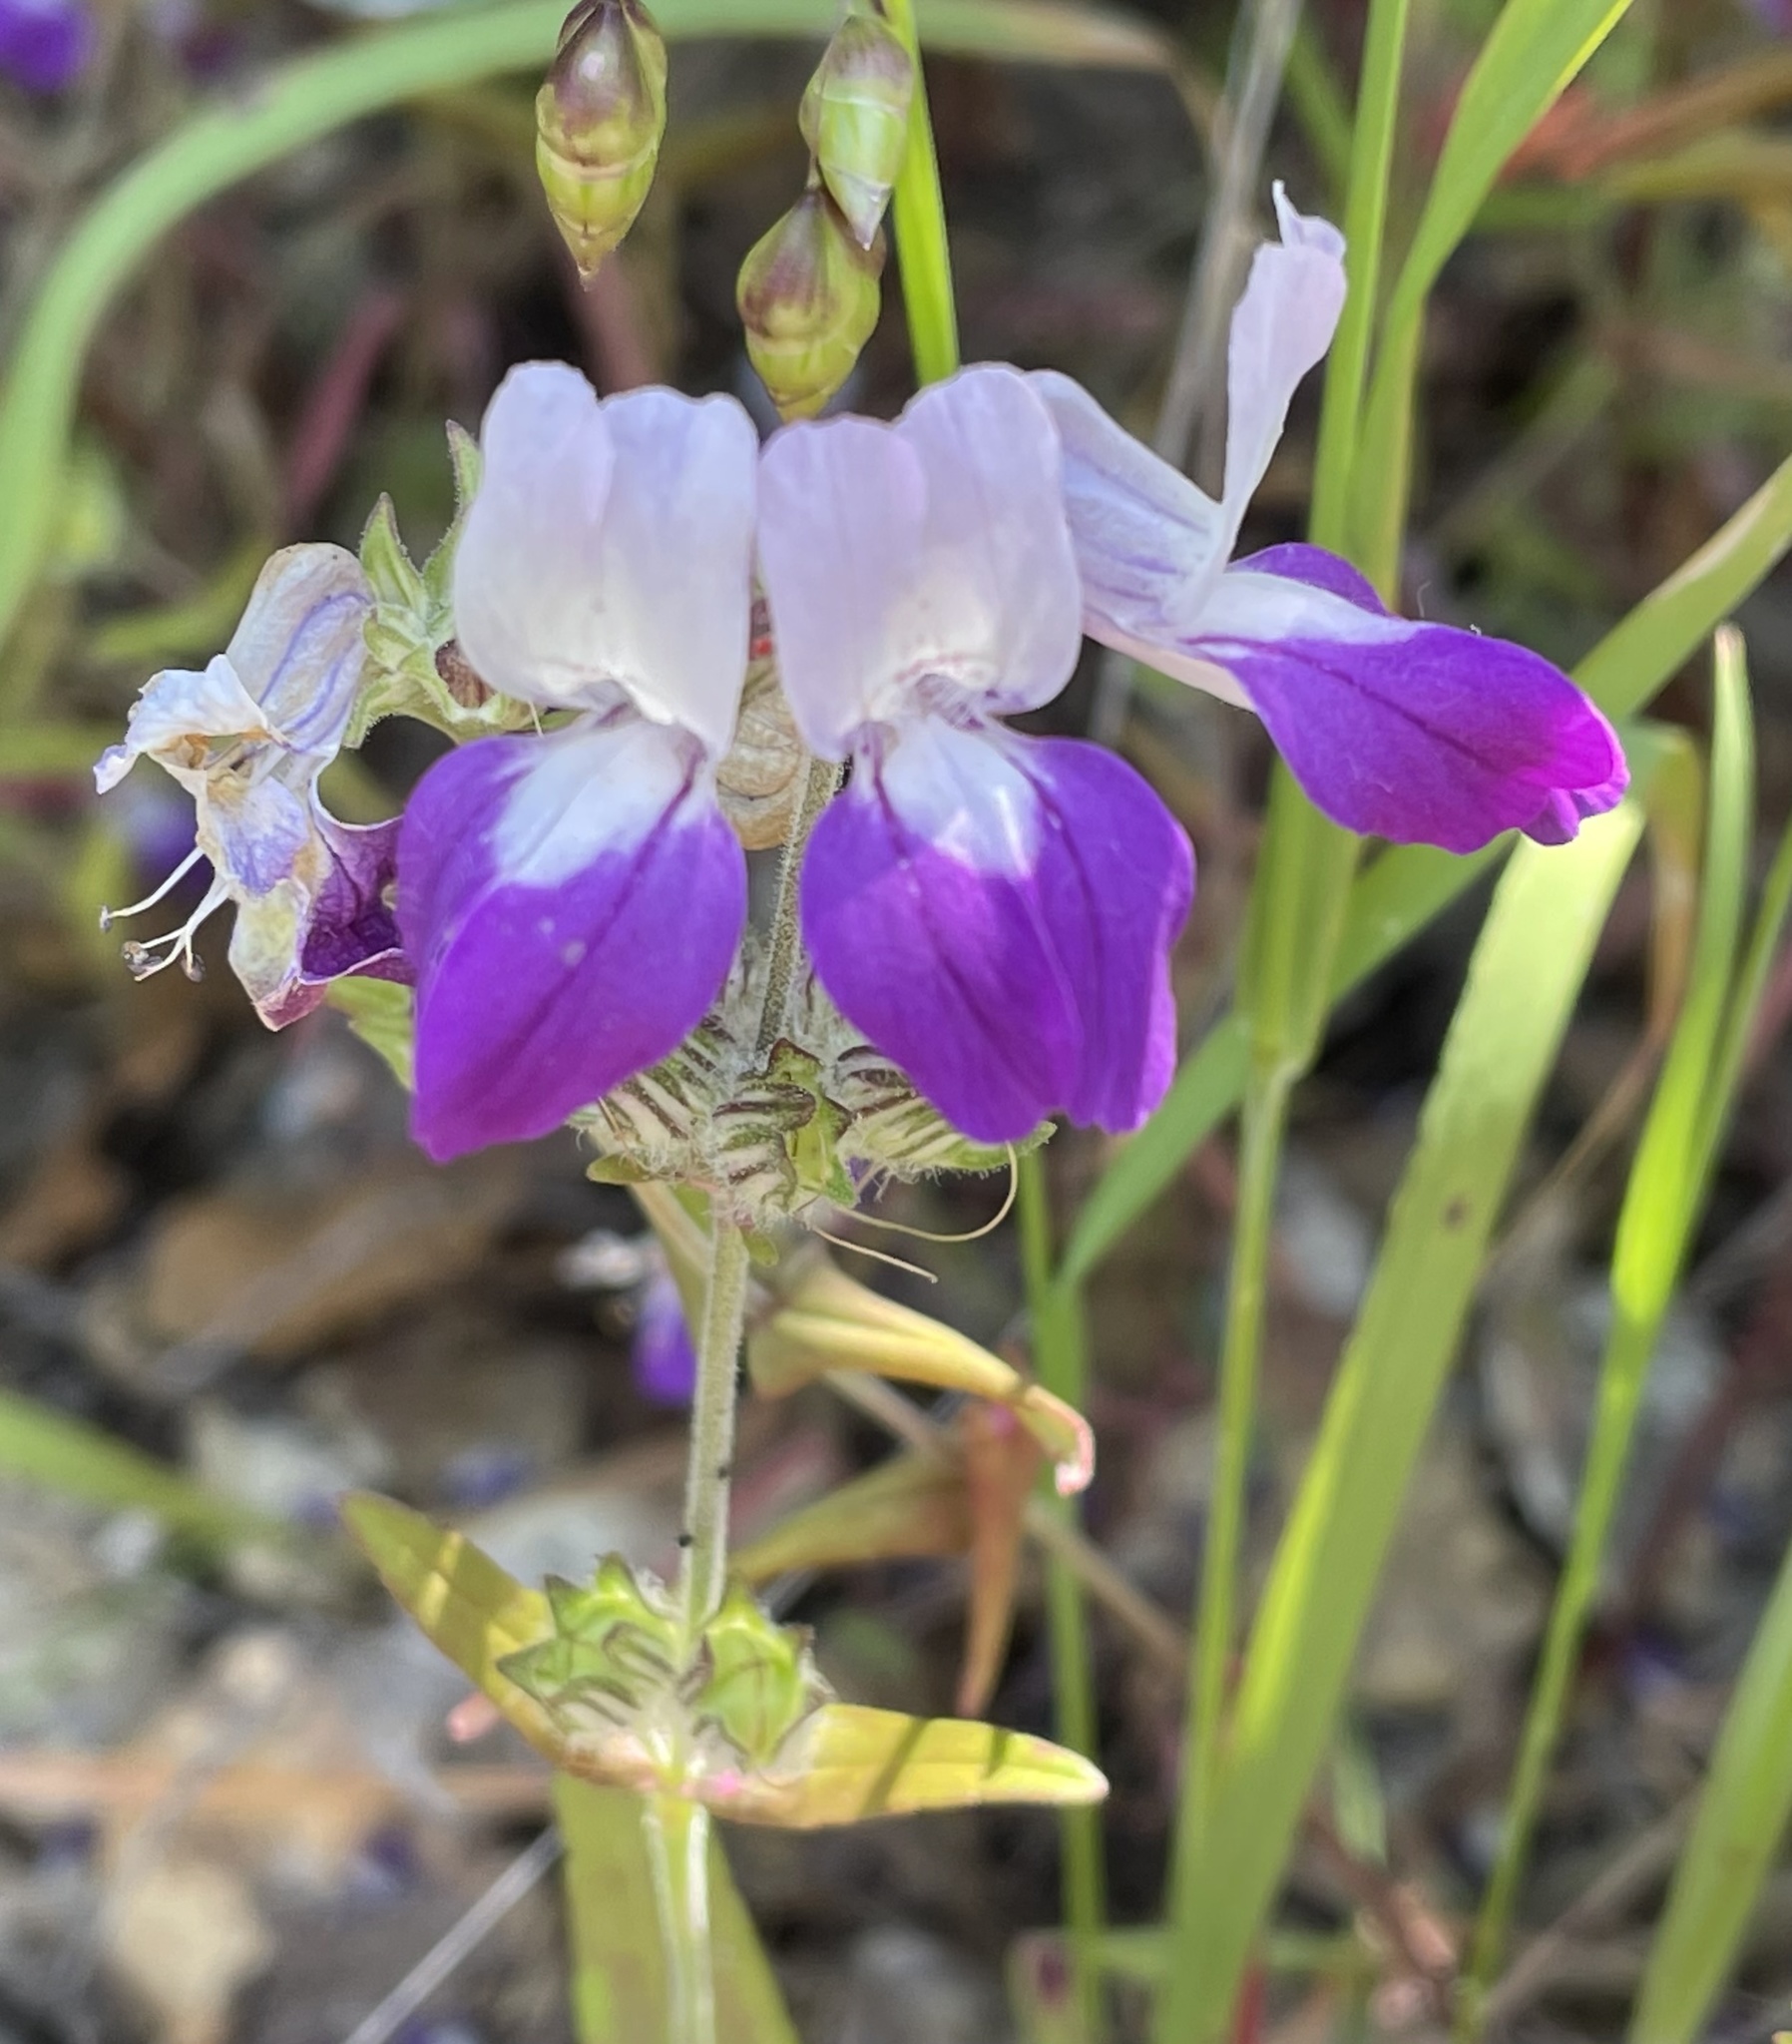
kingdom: Plantae
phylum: Tracheophyta
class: Magnoliopsida
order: Lamiales
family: Plantaginaceae
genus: Collinsia
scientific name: Collinsia heterophylla
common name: Chinese-houses
